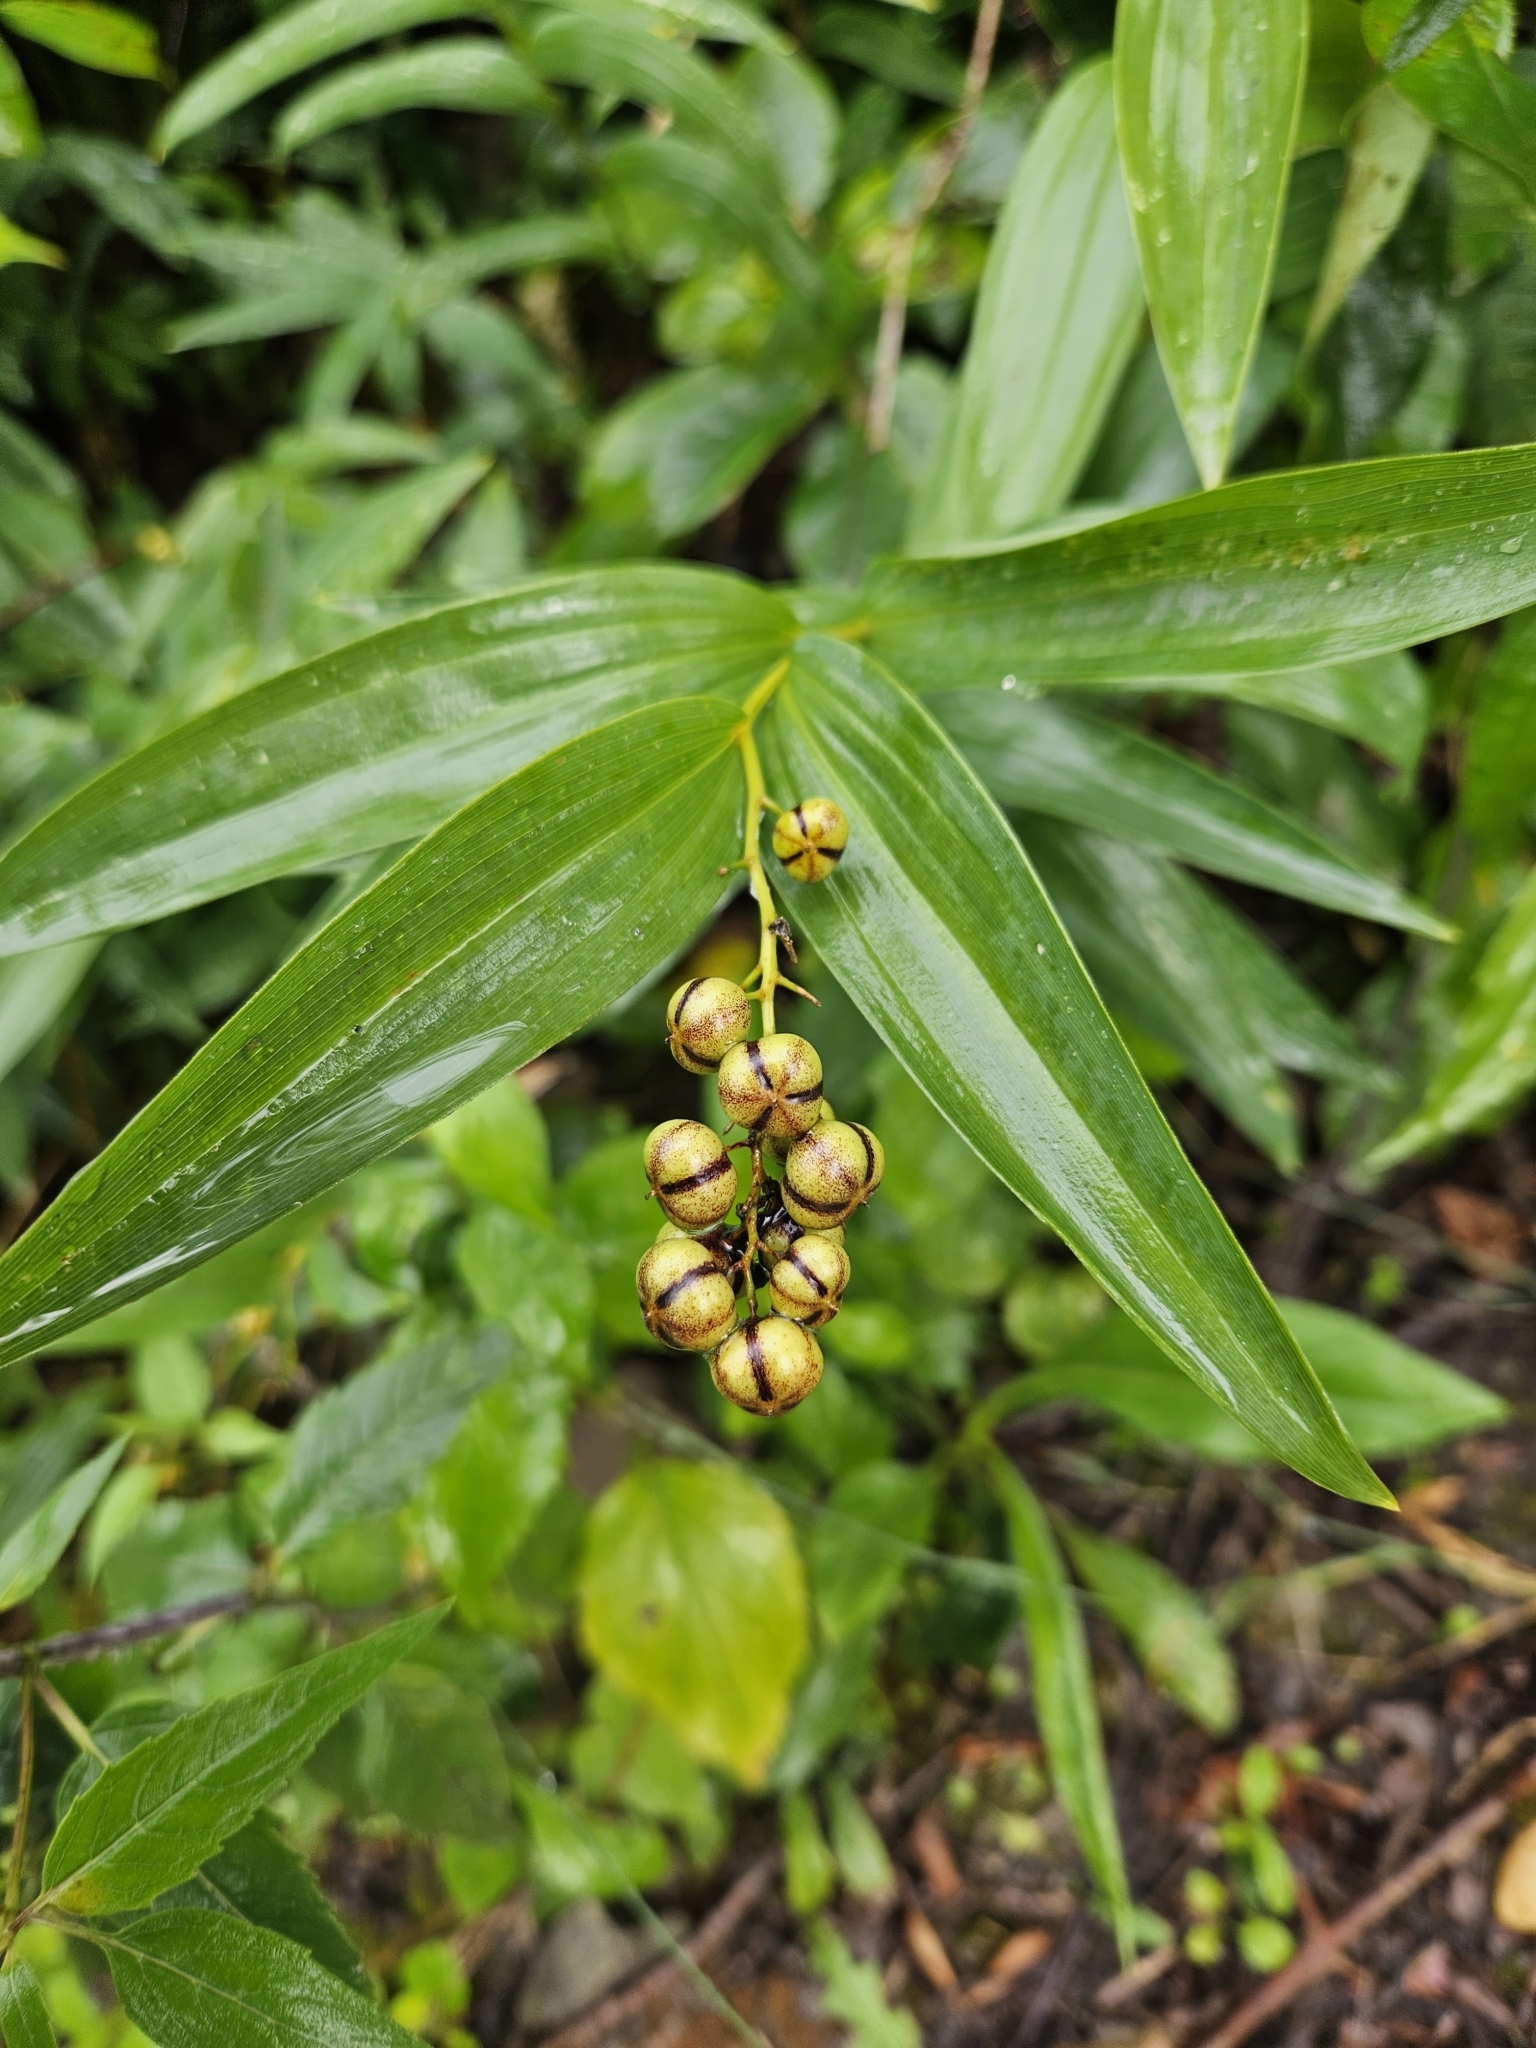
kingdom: Plantae
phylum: Tracheophyta
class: Liliopsida
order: Asparagales
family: Asparagaceae
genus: Maianthemum
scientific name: Maianthemum stellatum
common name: Little false solomon's seal
